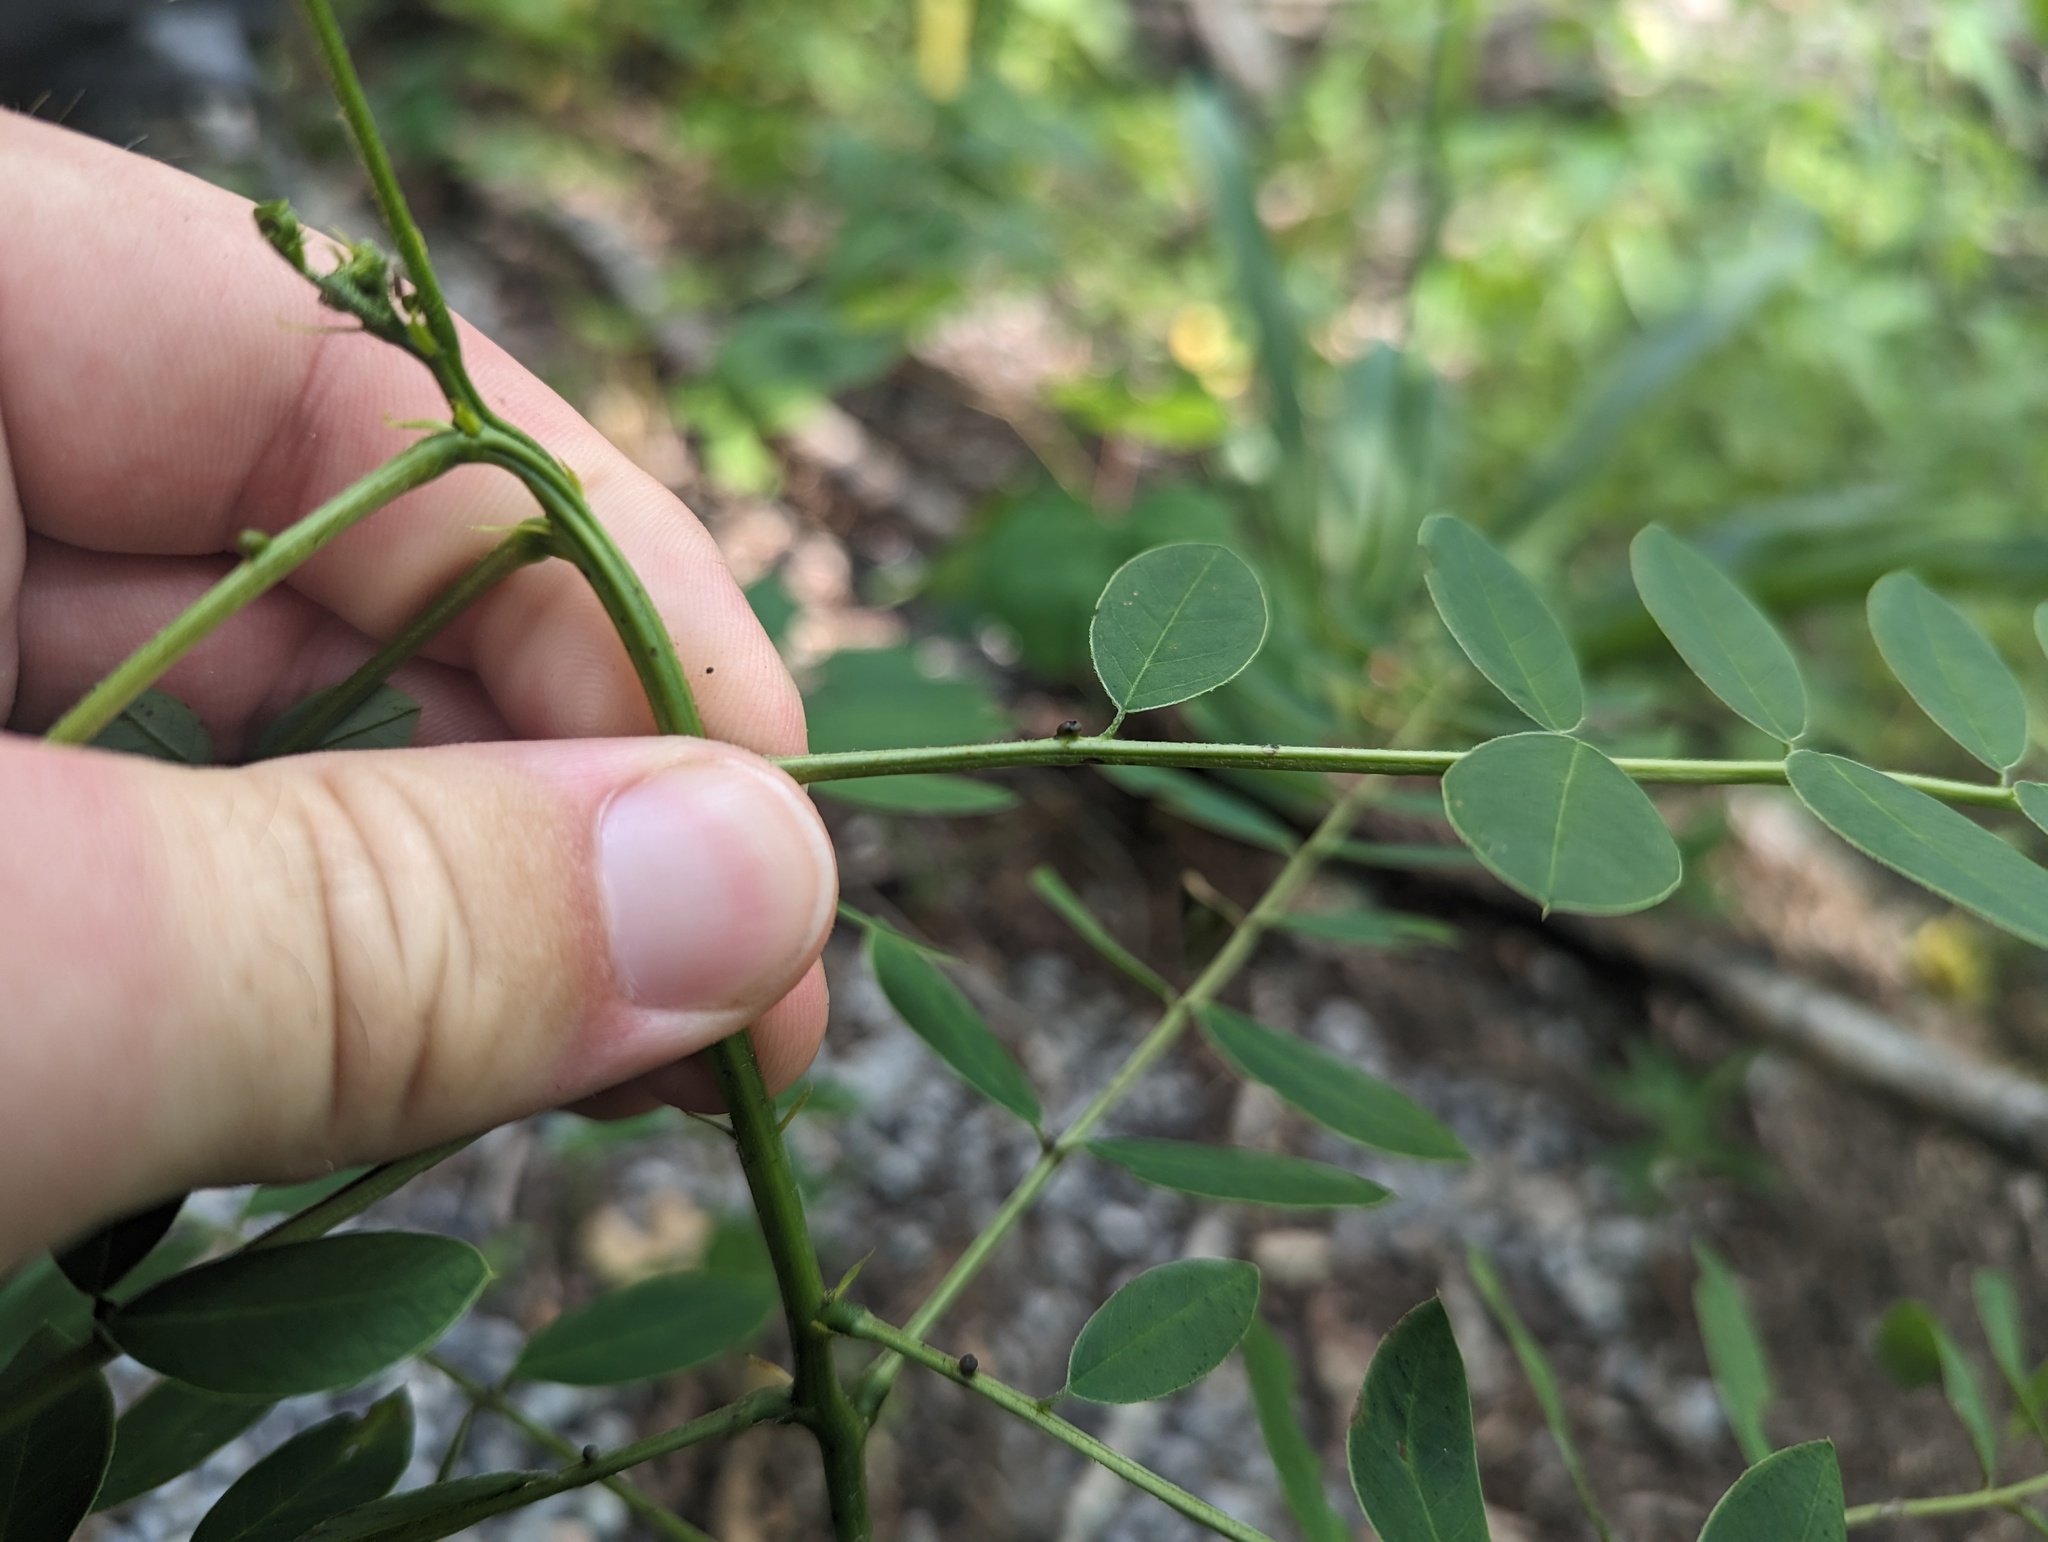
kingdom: Plantae
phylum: Tracheophyta
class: Magnoliopsida
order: Fabales
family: Fabaceae
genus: Senna
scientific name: Senna marilandica
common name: American senna
